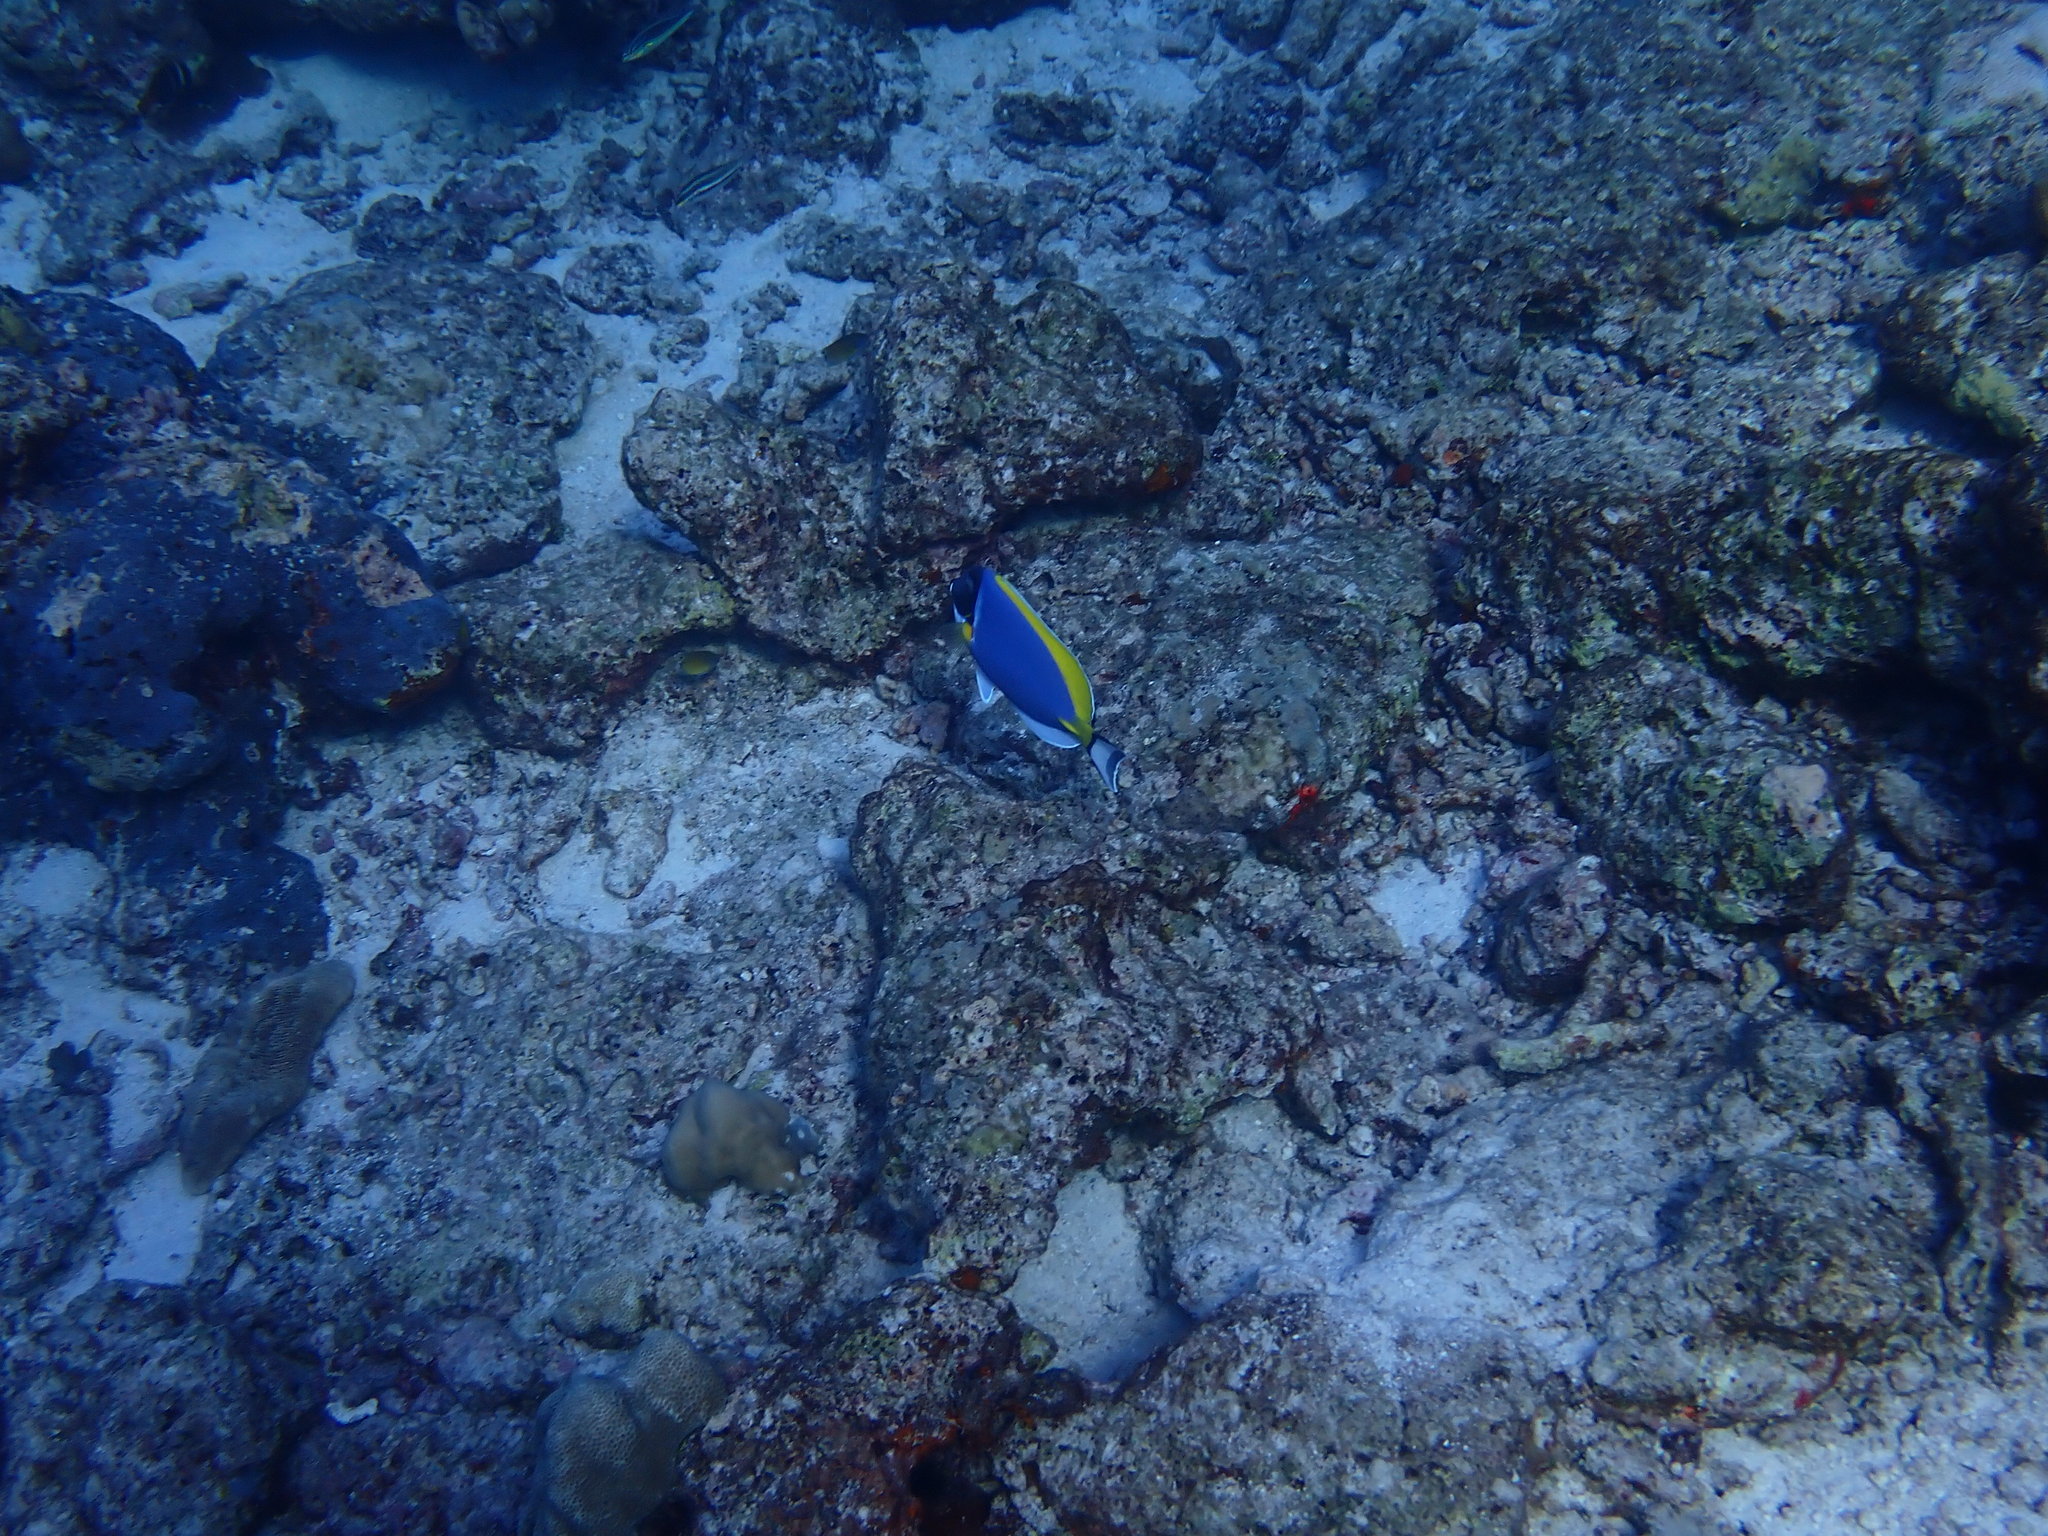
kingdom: Animalia
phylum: Chordata
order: Perciformes
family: Acanthuridae
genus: Acanthurus
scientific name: Acanthurus leucosternon
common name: Blue surgeonfish
